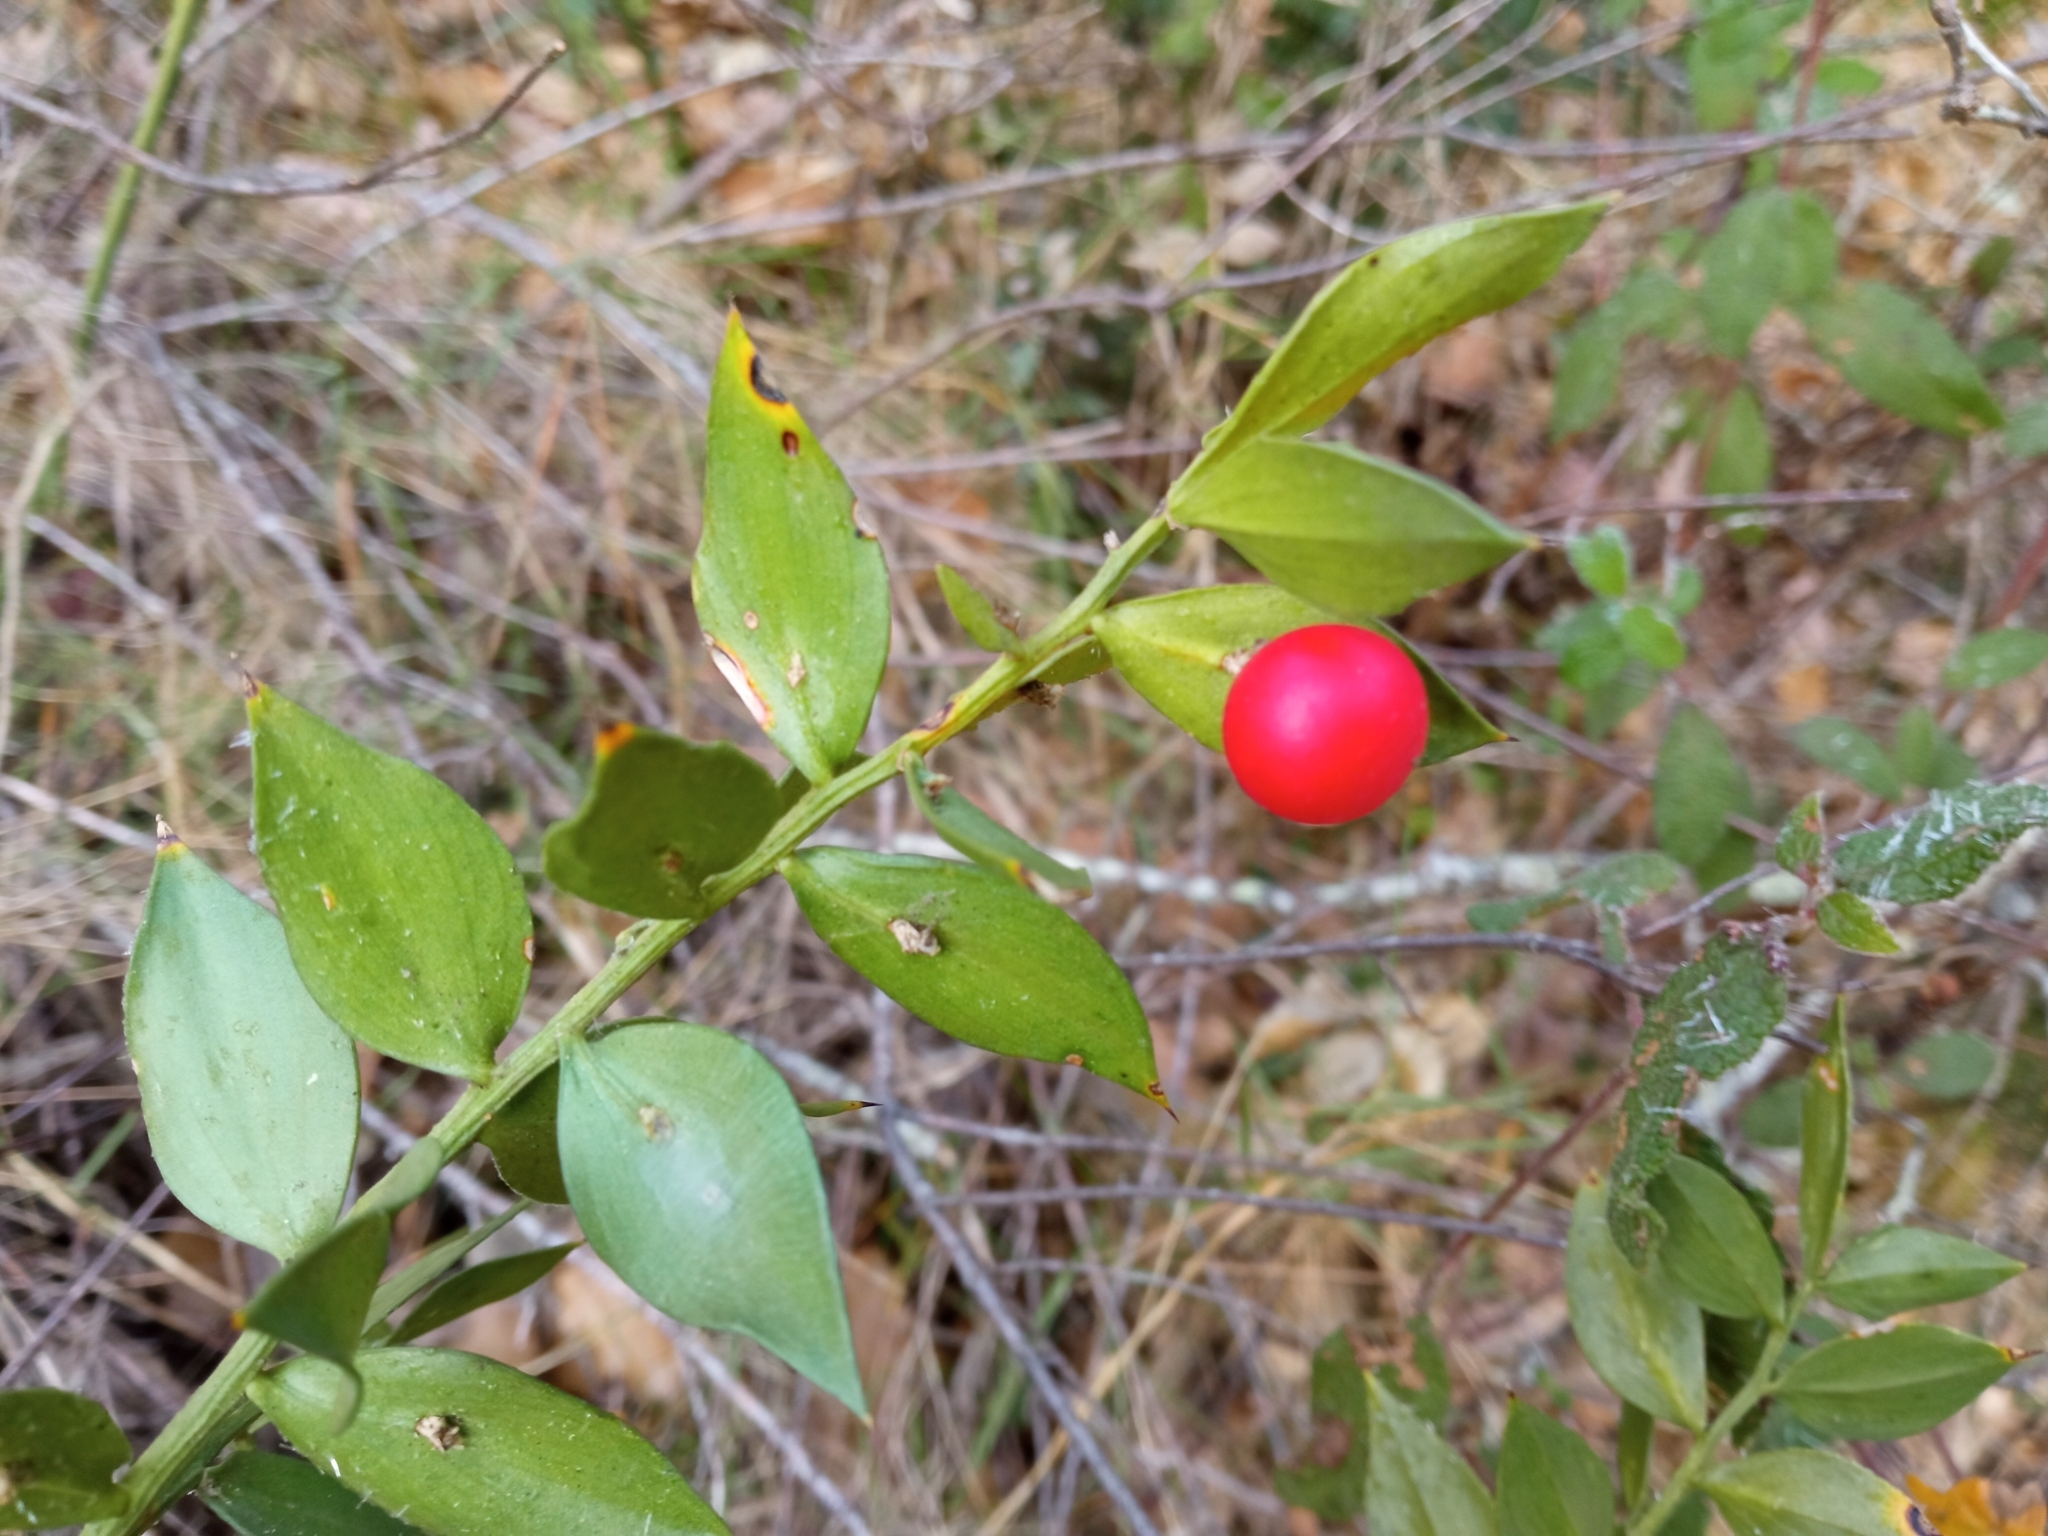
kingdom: Plantae
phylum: Tracheophyta
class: Liliopsida
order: Asparagales
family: Asparagaceae
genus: Ruscus
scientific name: Ruscus aculeatus
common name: Butcher's-broom
